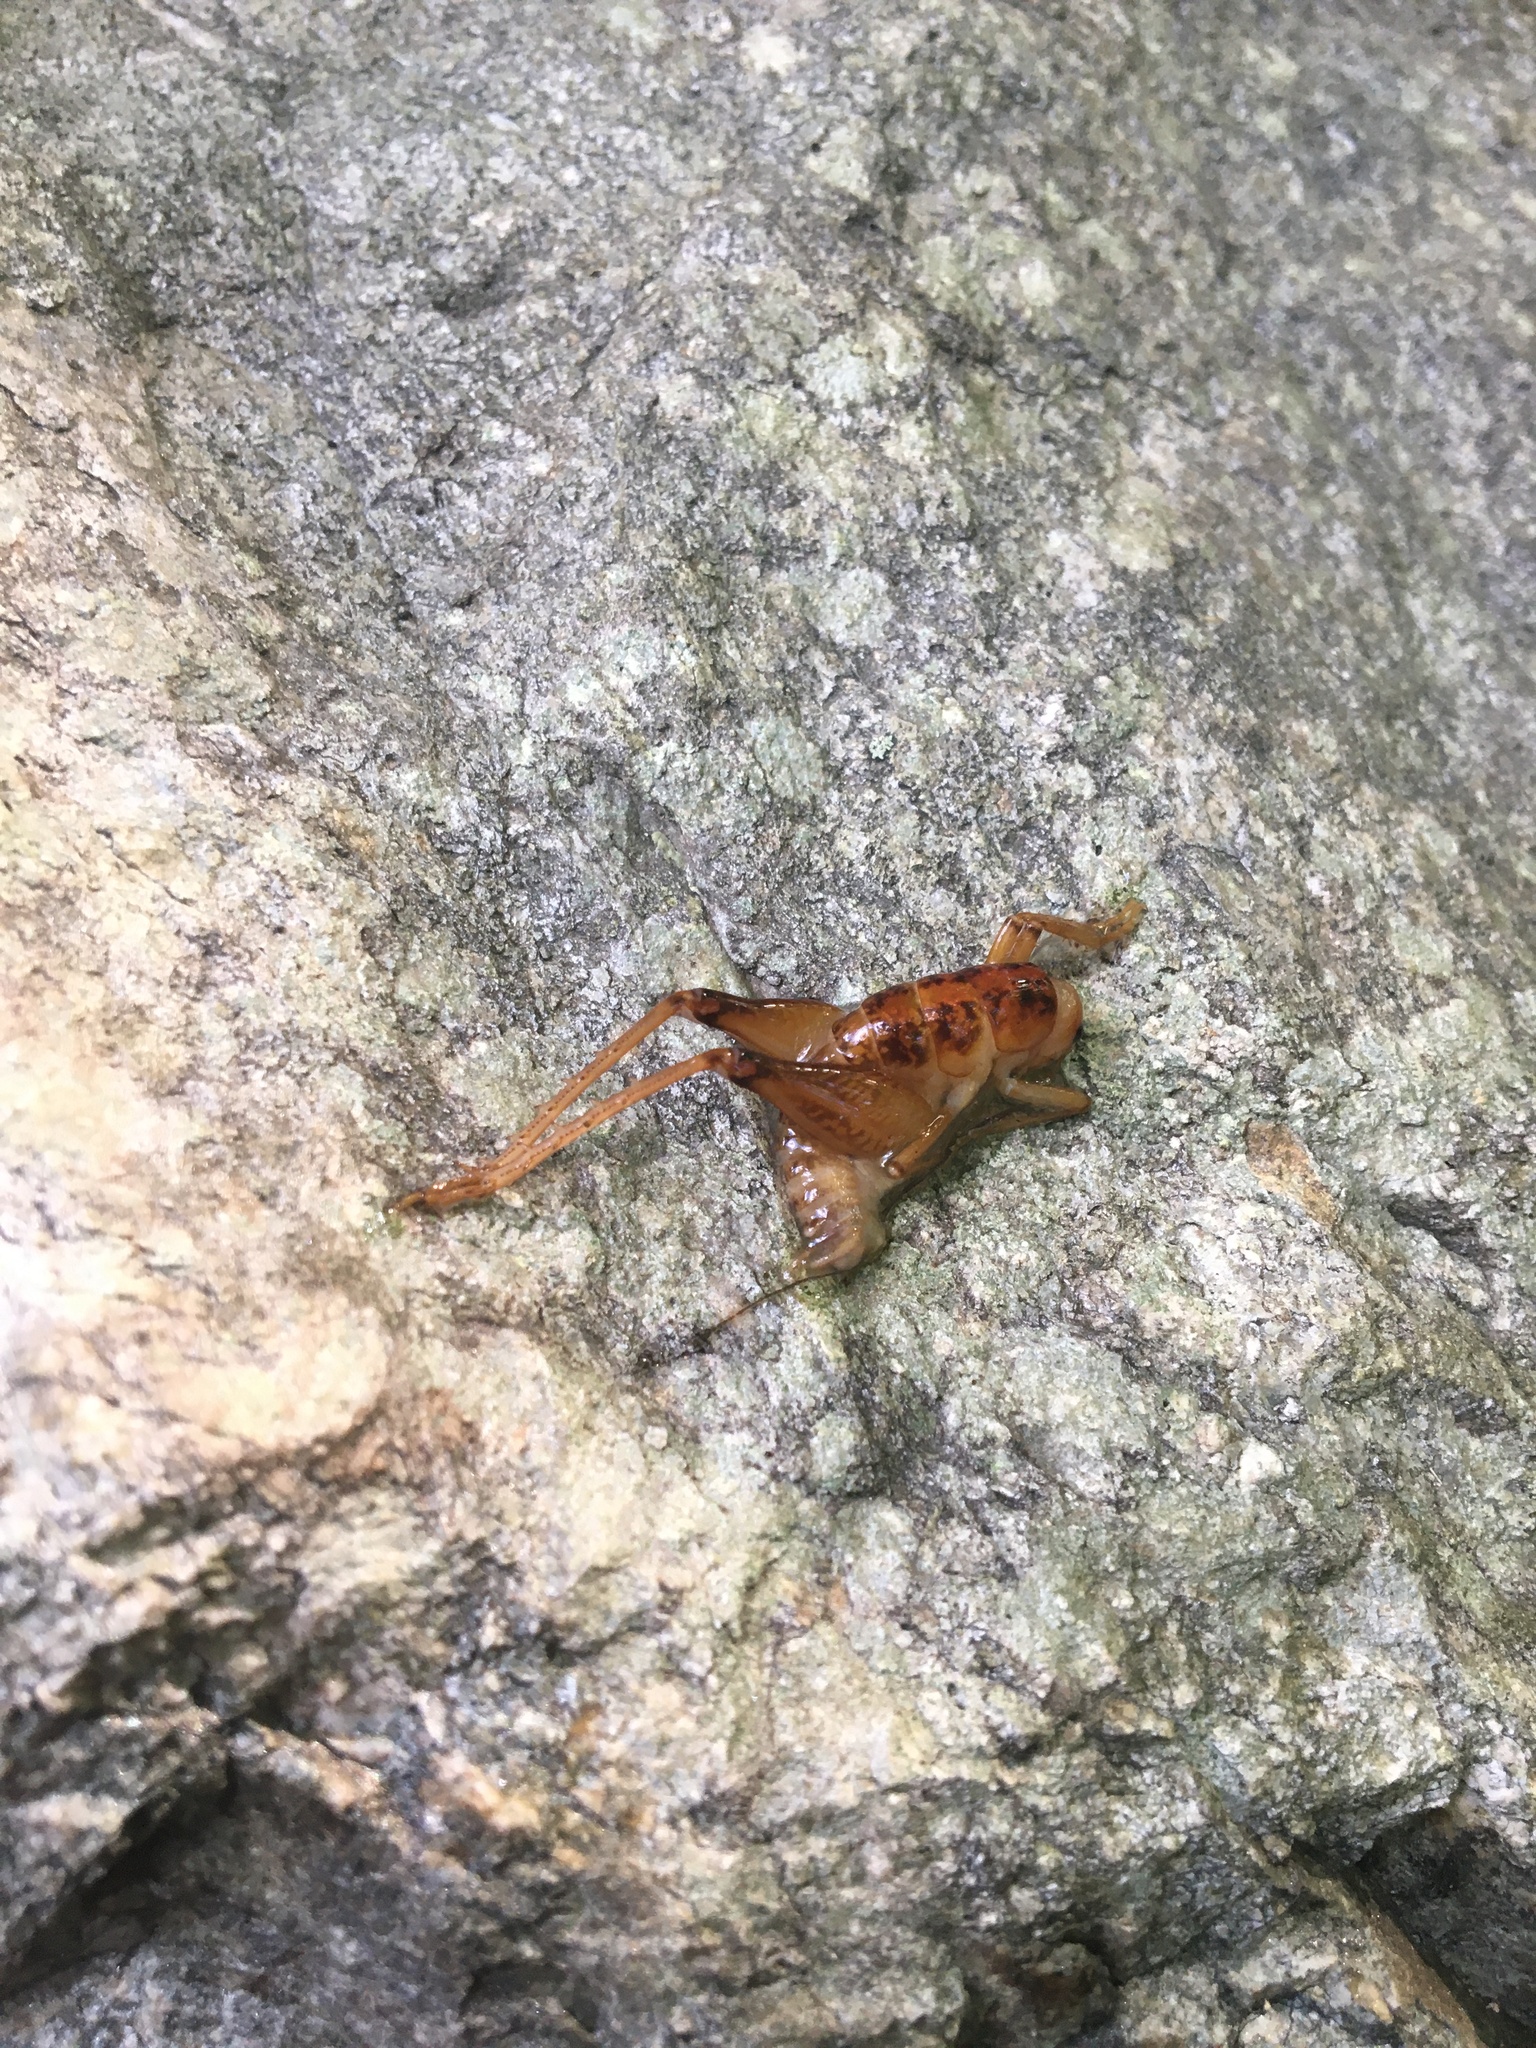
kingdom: Animalia
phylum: Arthropoda
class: Insecta
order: Orthoptera
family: Rhaphidophoridae
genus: Ceuthophilus
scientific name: Ceuthophilus
